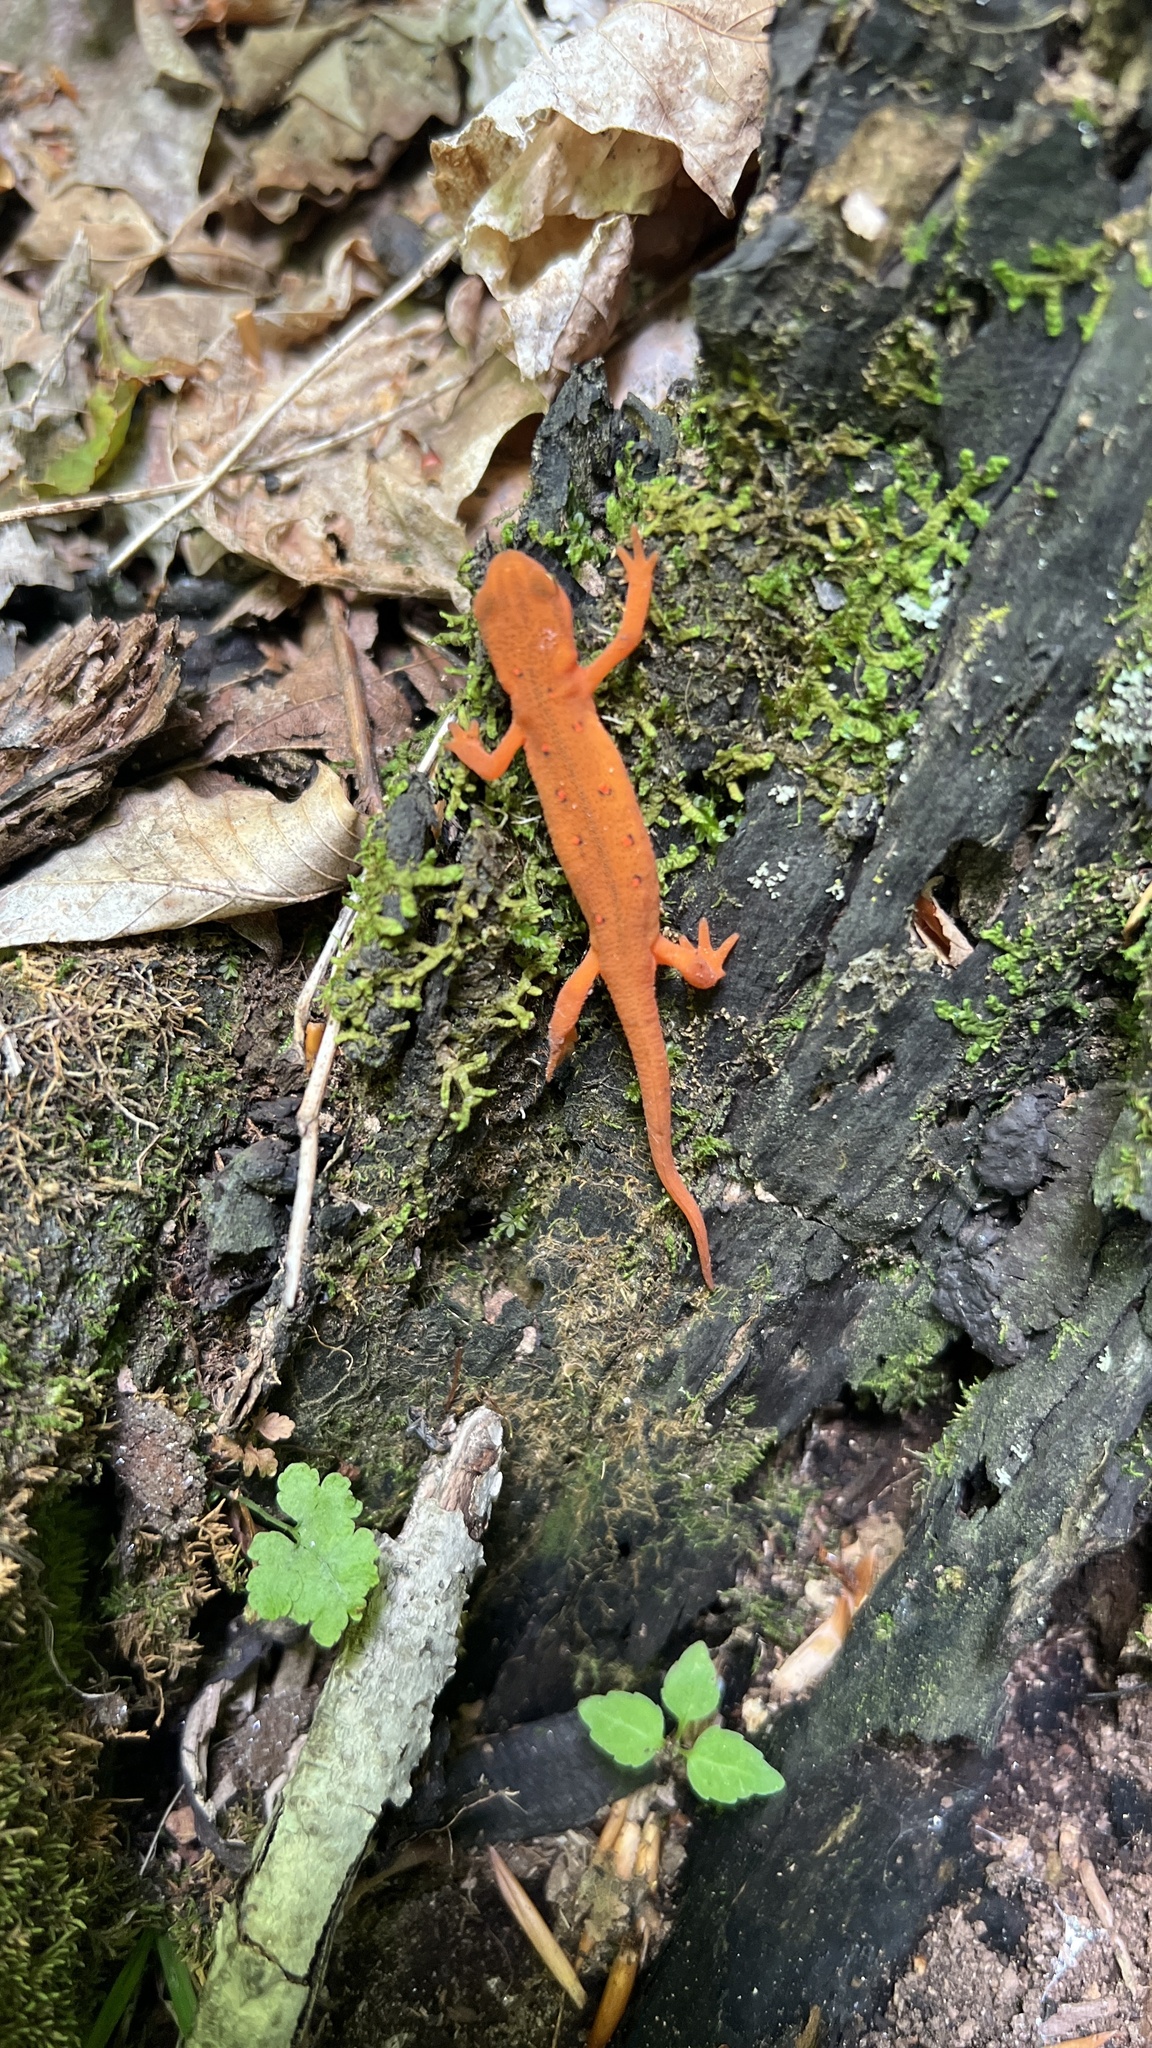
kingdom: Animalia
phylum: Chordata
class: Amphibia
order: Caudata
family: Salamandridae
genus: Notophthalmus
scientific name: Notophthalmus viridescens
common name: Eastern newt
